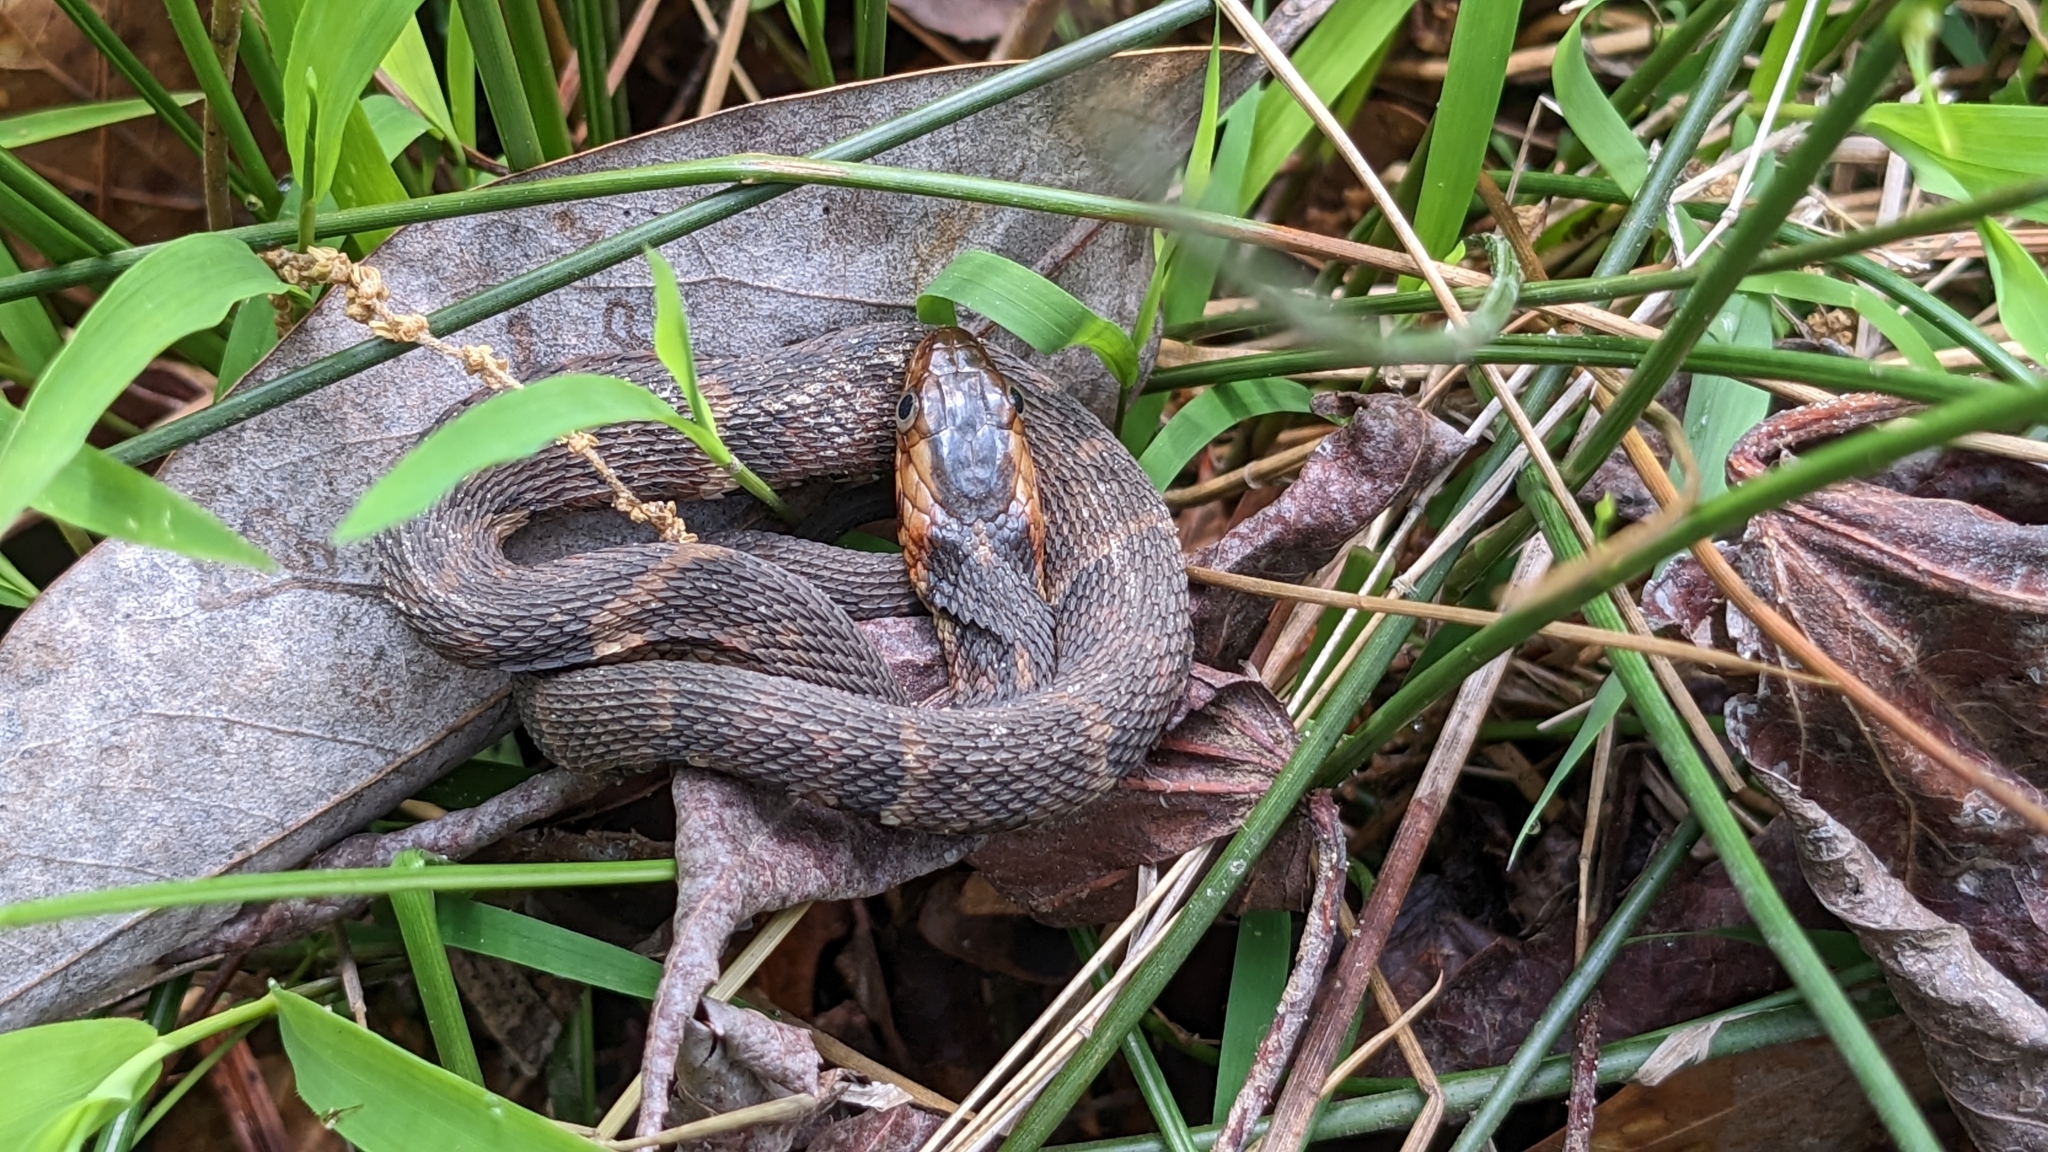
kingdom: Animalia
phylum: Chordata
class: Squamata
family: Colubridae
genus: Nerodia
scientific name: Nerodia fasciata
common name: Southern water snake
